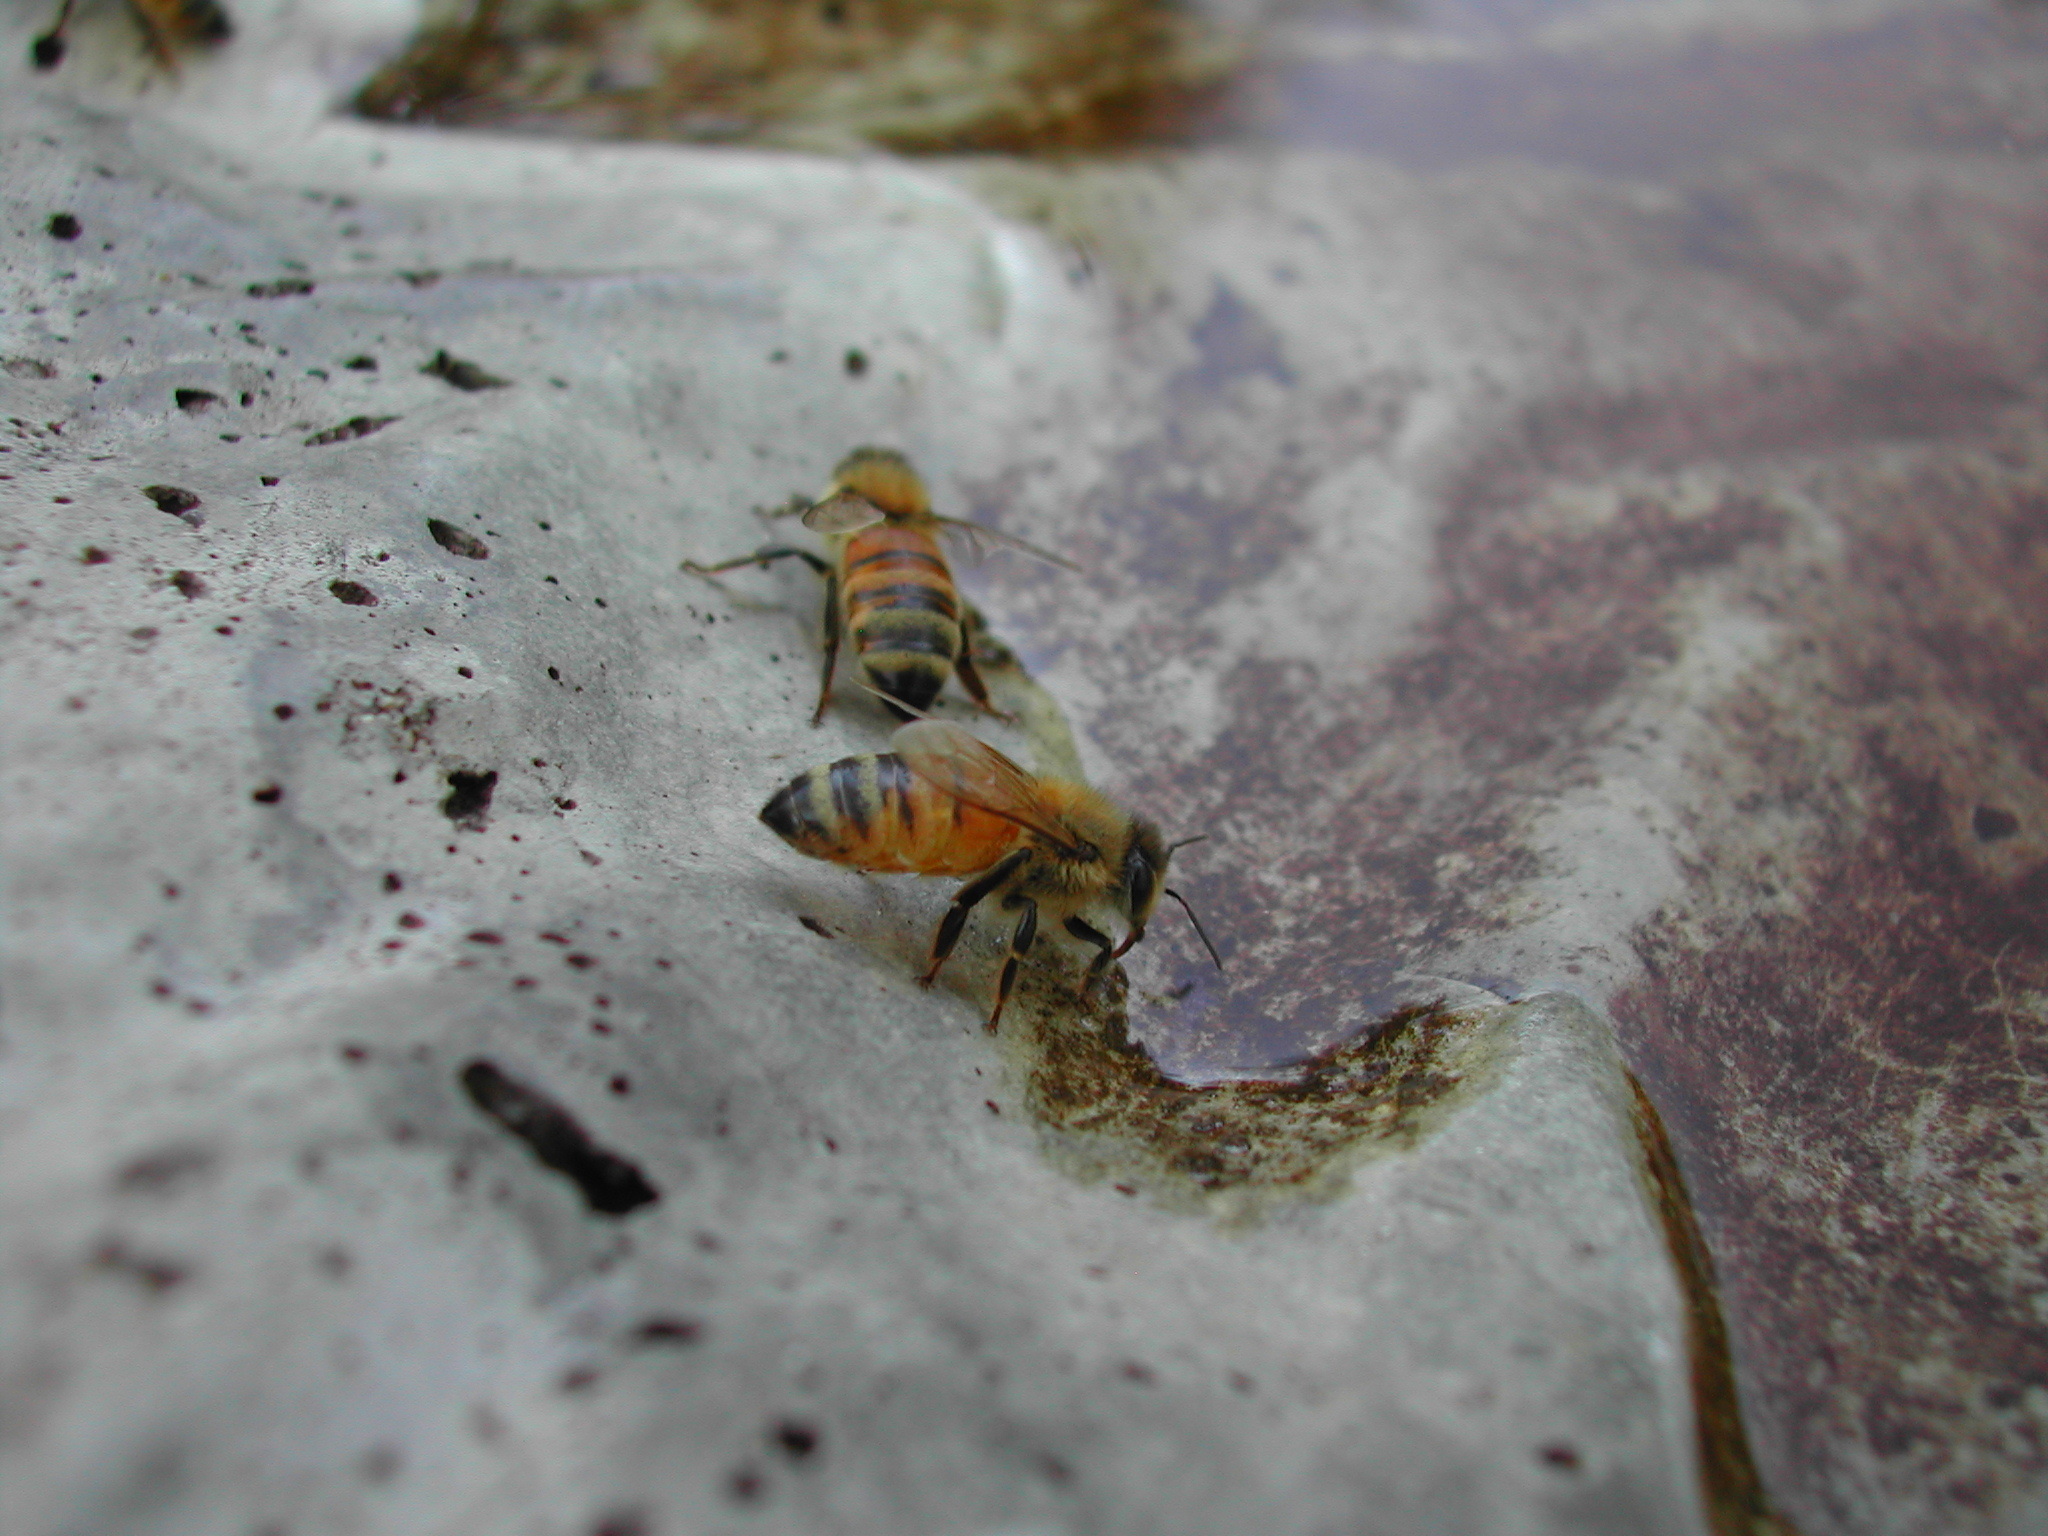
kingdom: Animalia
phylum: Arthropoda
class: Insecta
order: Hymenoptera
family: Apidae
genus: Apis
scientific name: Apis mellifera
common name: Honey bee
